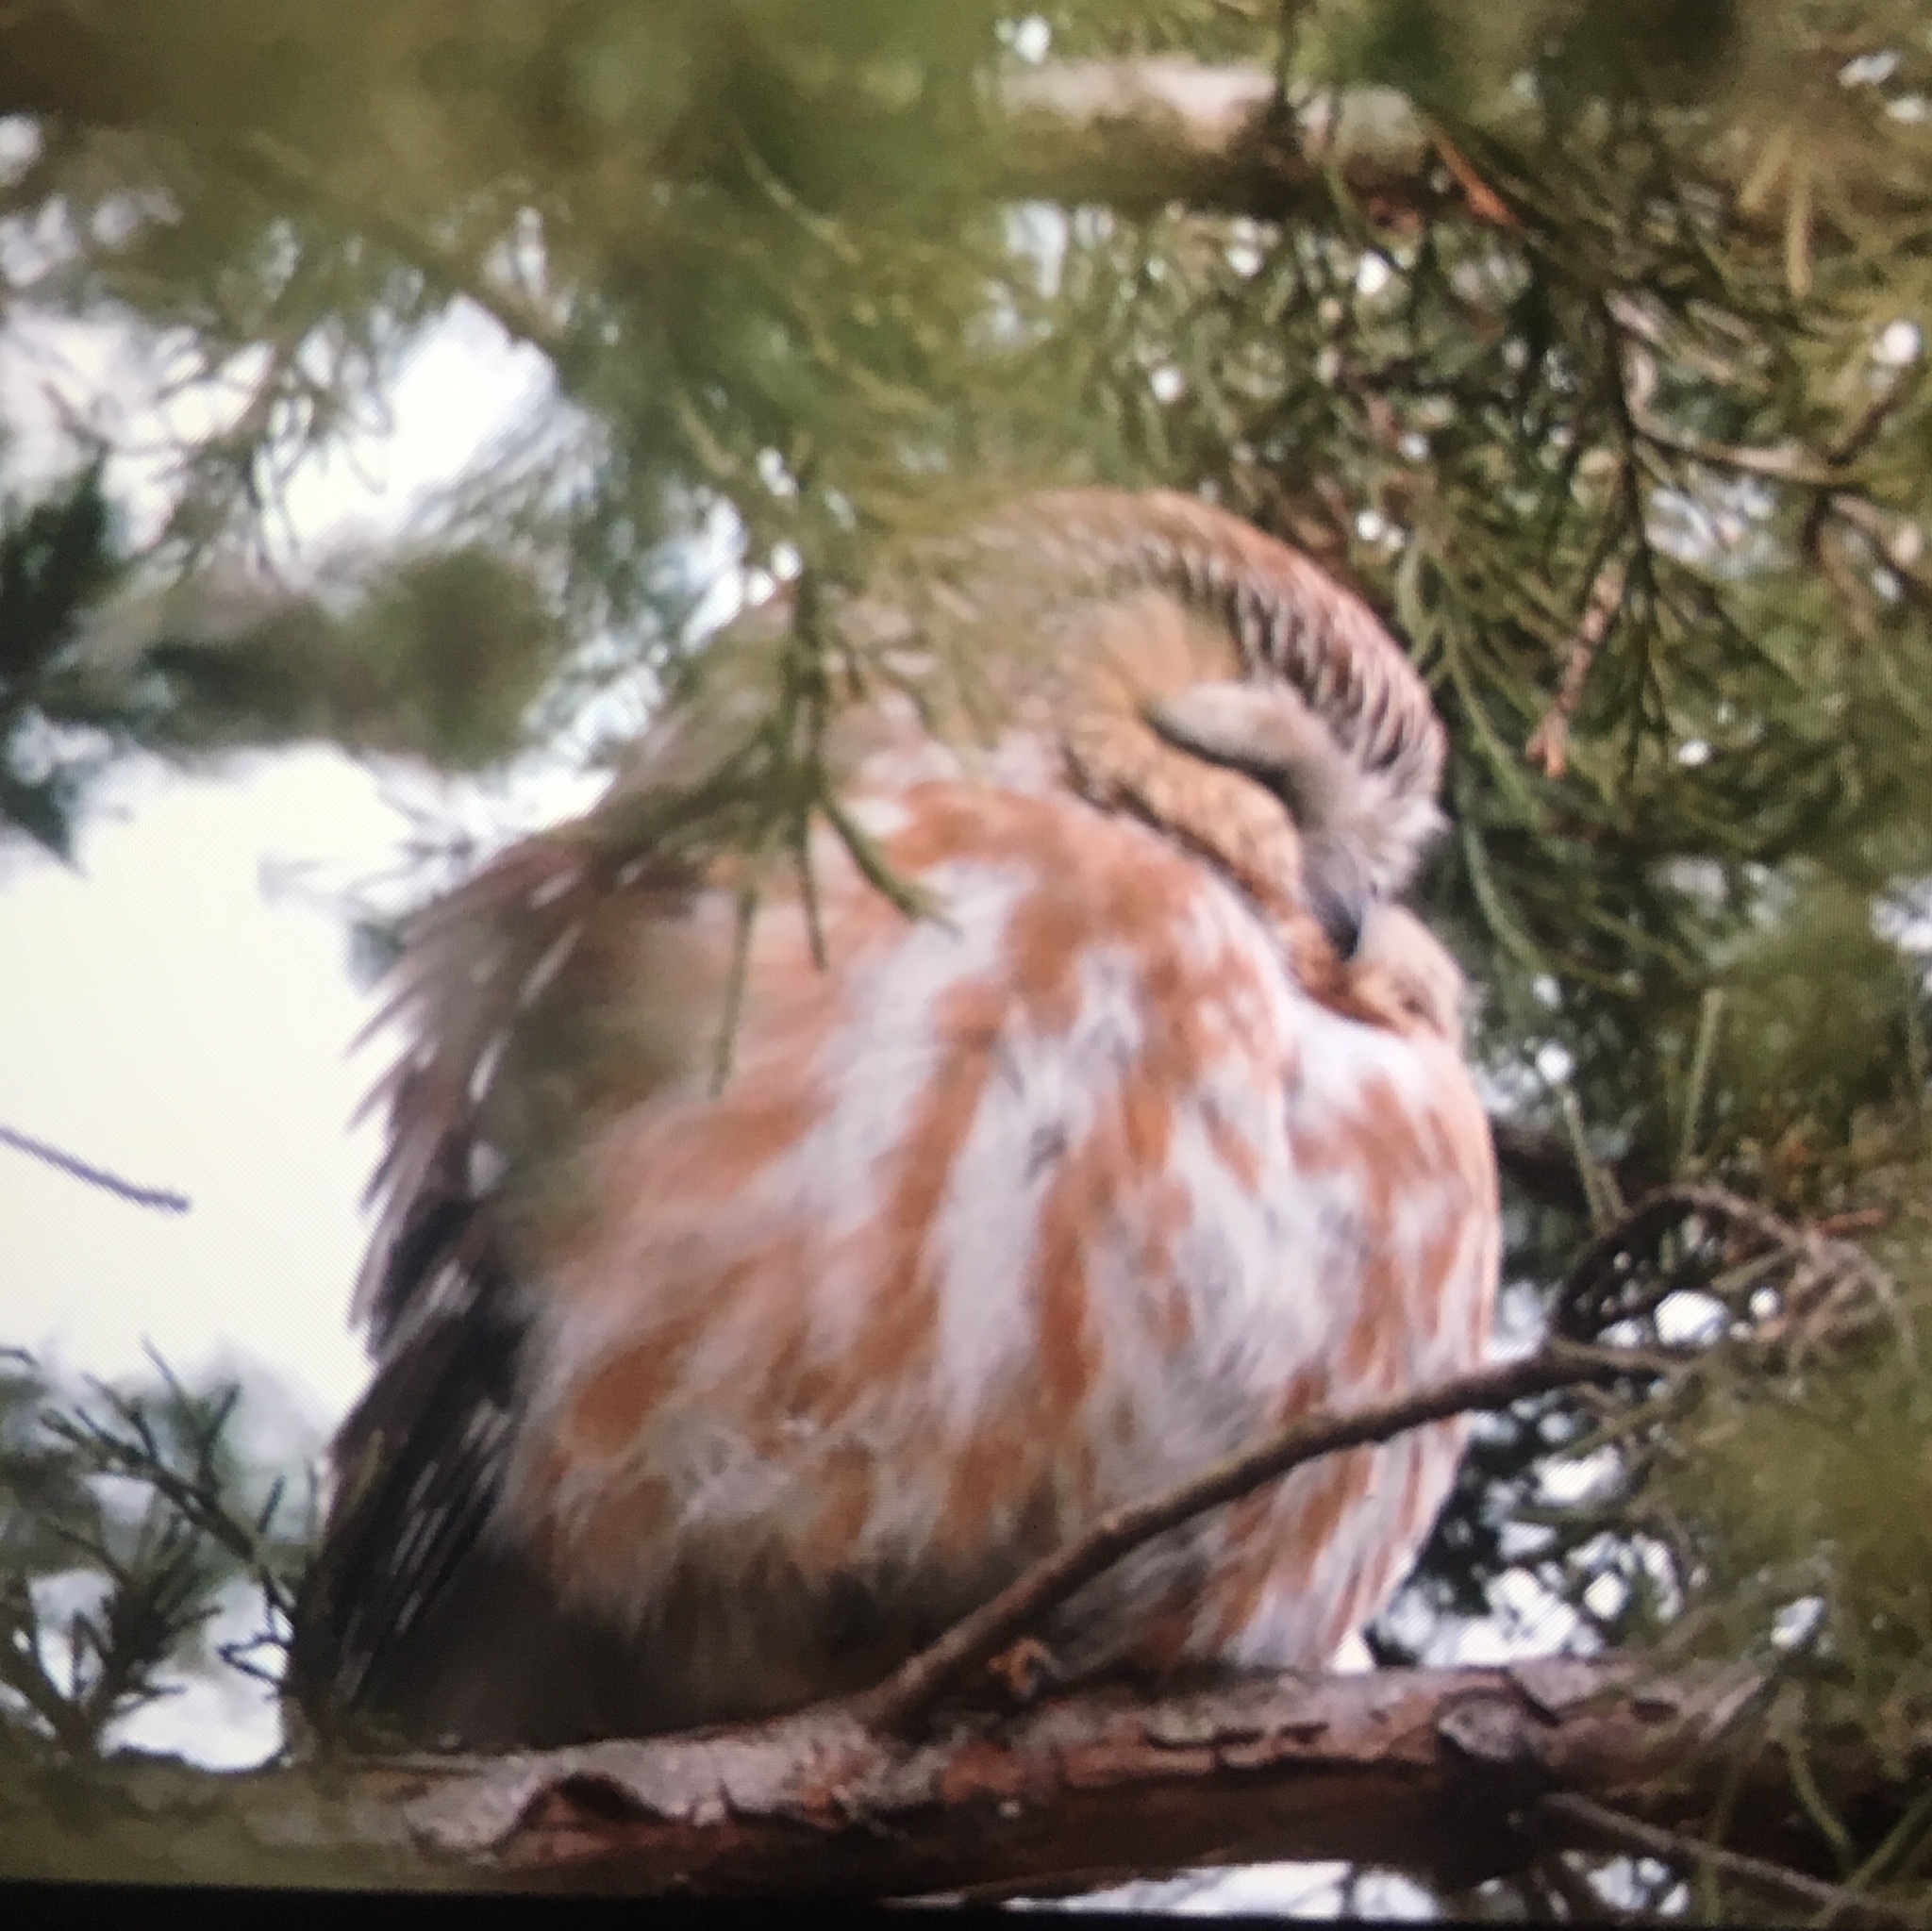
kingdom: Animalia
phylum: Chordata
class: Aves
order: Strigiformes
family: Strigidae
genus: Aegolius
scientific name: Aegolius acadicus
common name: Northern saw-whet owl
